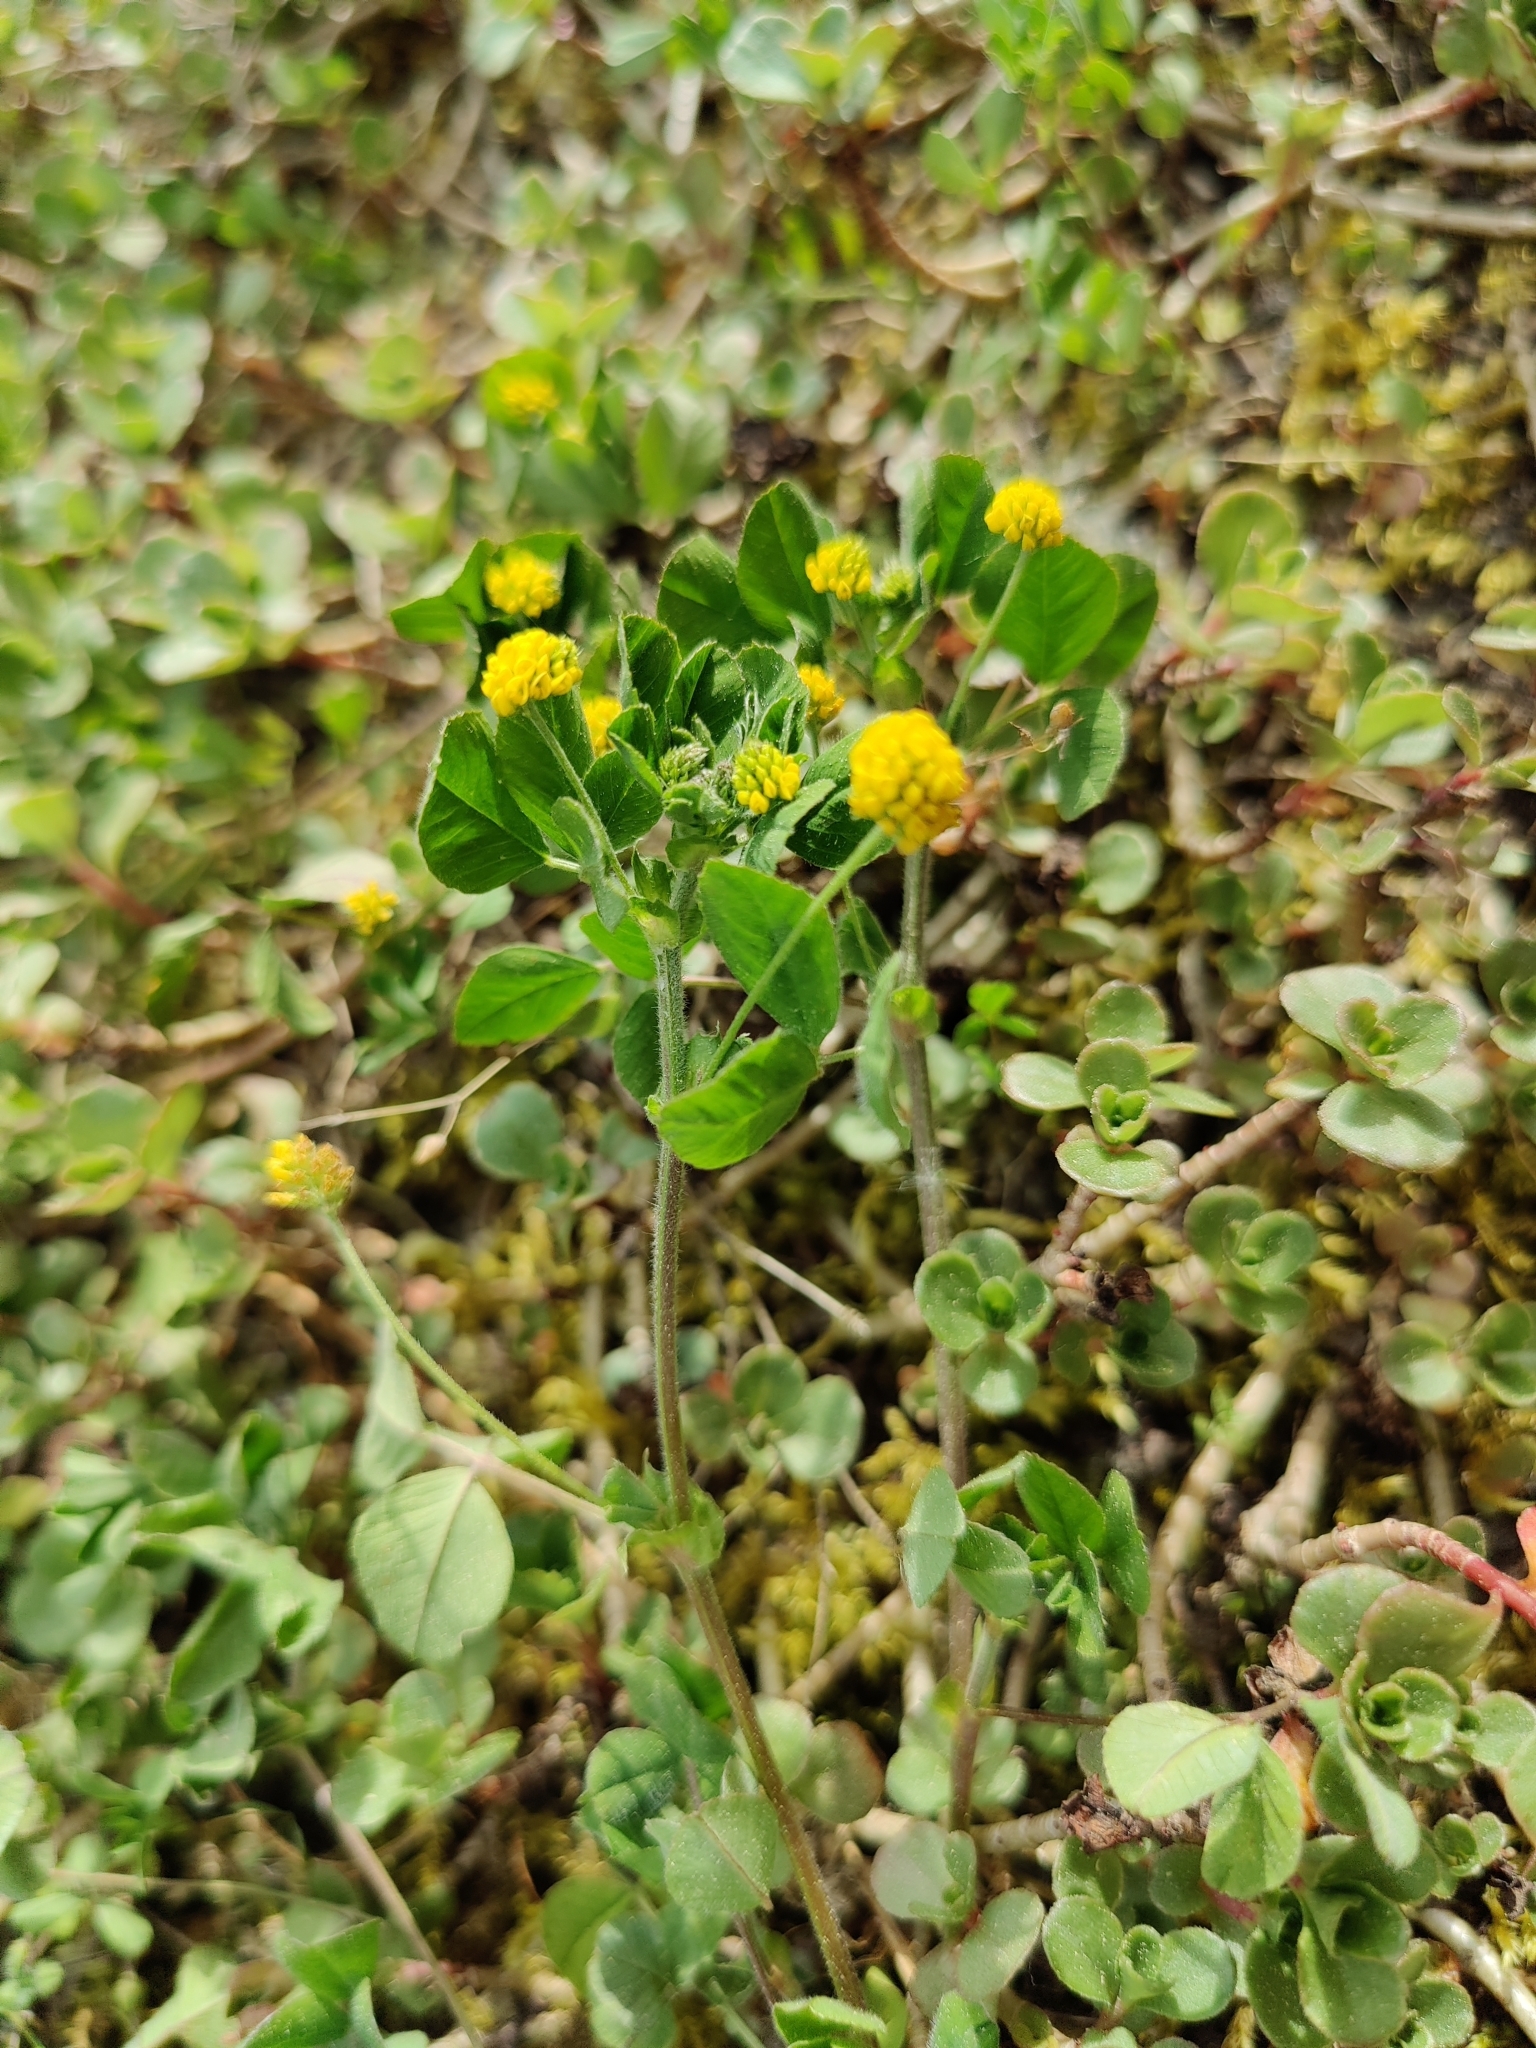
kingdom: Plantae
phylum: Tracheophyta
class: Magnoliopsida
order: Fabales
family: Fabaceae
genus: Medicago
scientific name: Medicago lupulina
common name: Black medick
